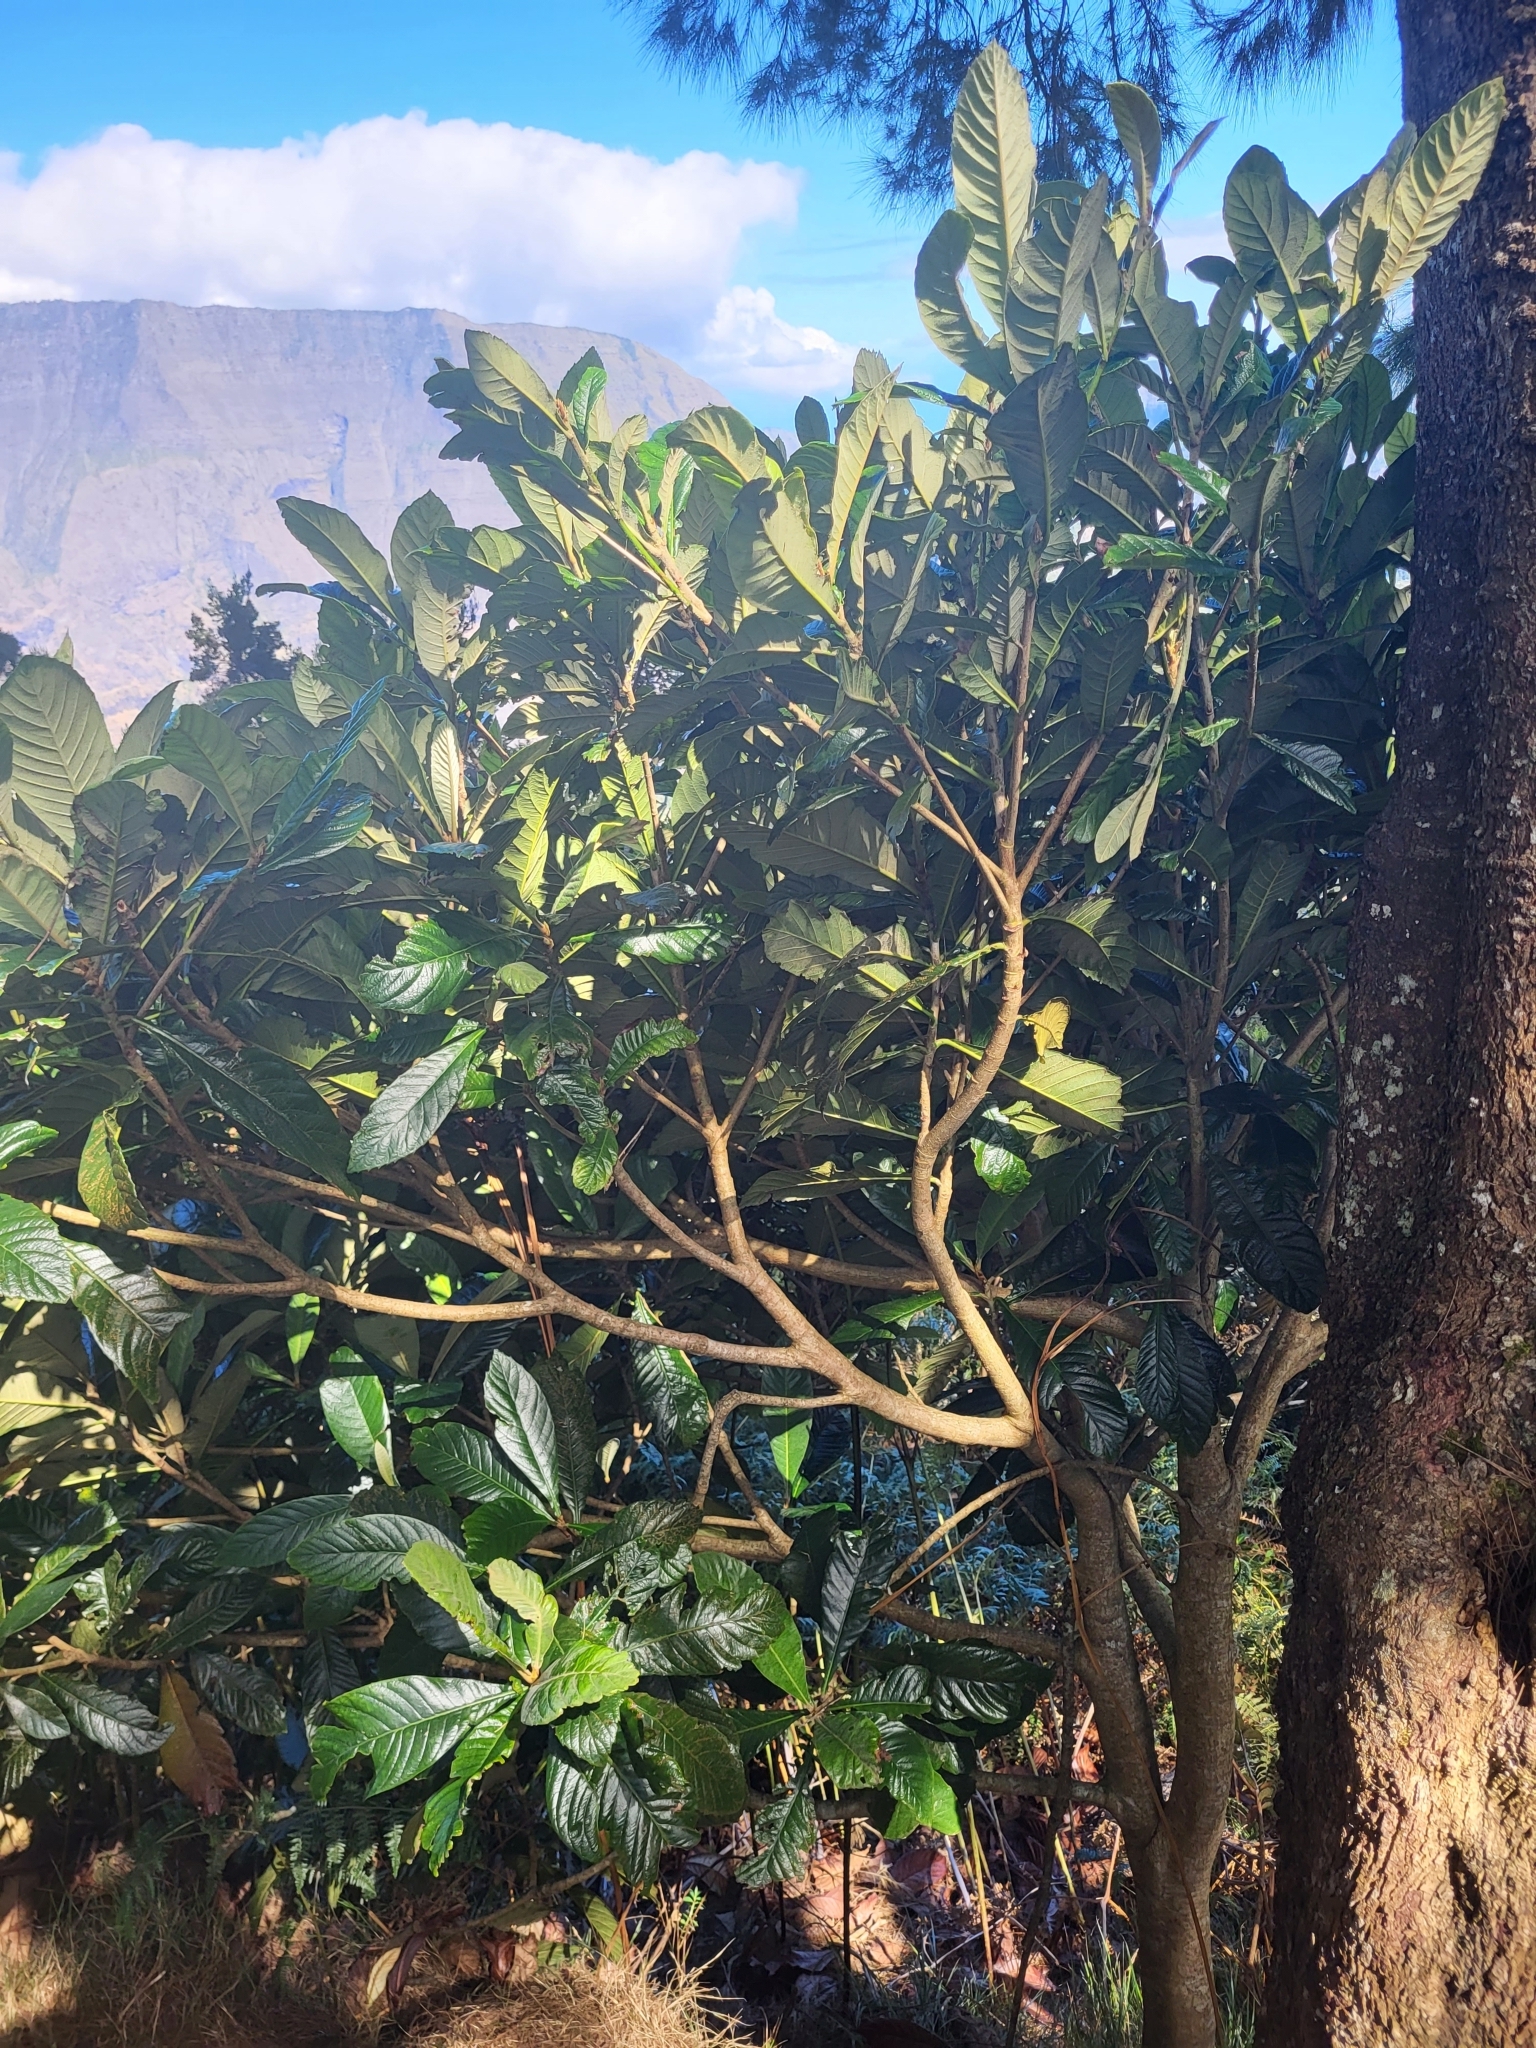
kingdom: Plantae
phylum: Tracheophyta
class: Magnoliopsida
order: Rosales
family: Rosaceae
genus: Rhaphiolepis
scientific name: Rhaphiolepis bibas
